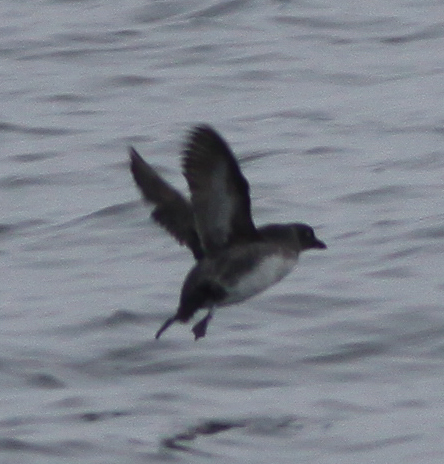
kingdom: Animalia
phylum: Chordata
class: Aves
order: Charadriiformes
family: Alcidae
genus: Ptychoramphus
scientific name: Ptychoramphus aleuticus
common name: Cassin's auklet
